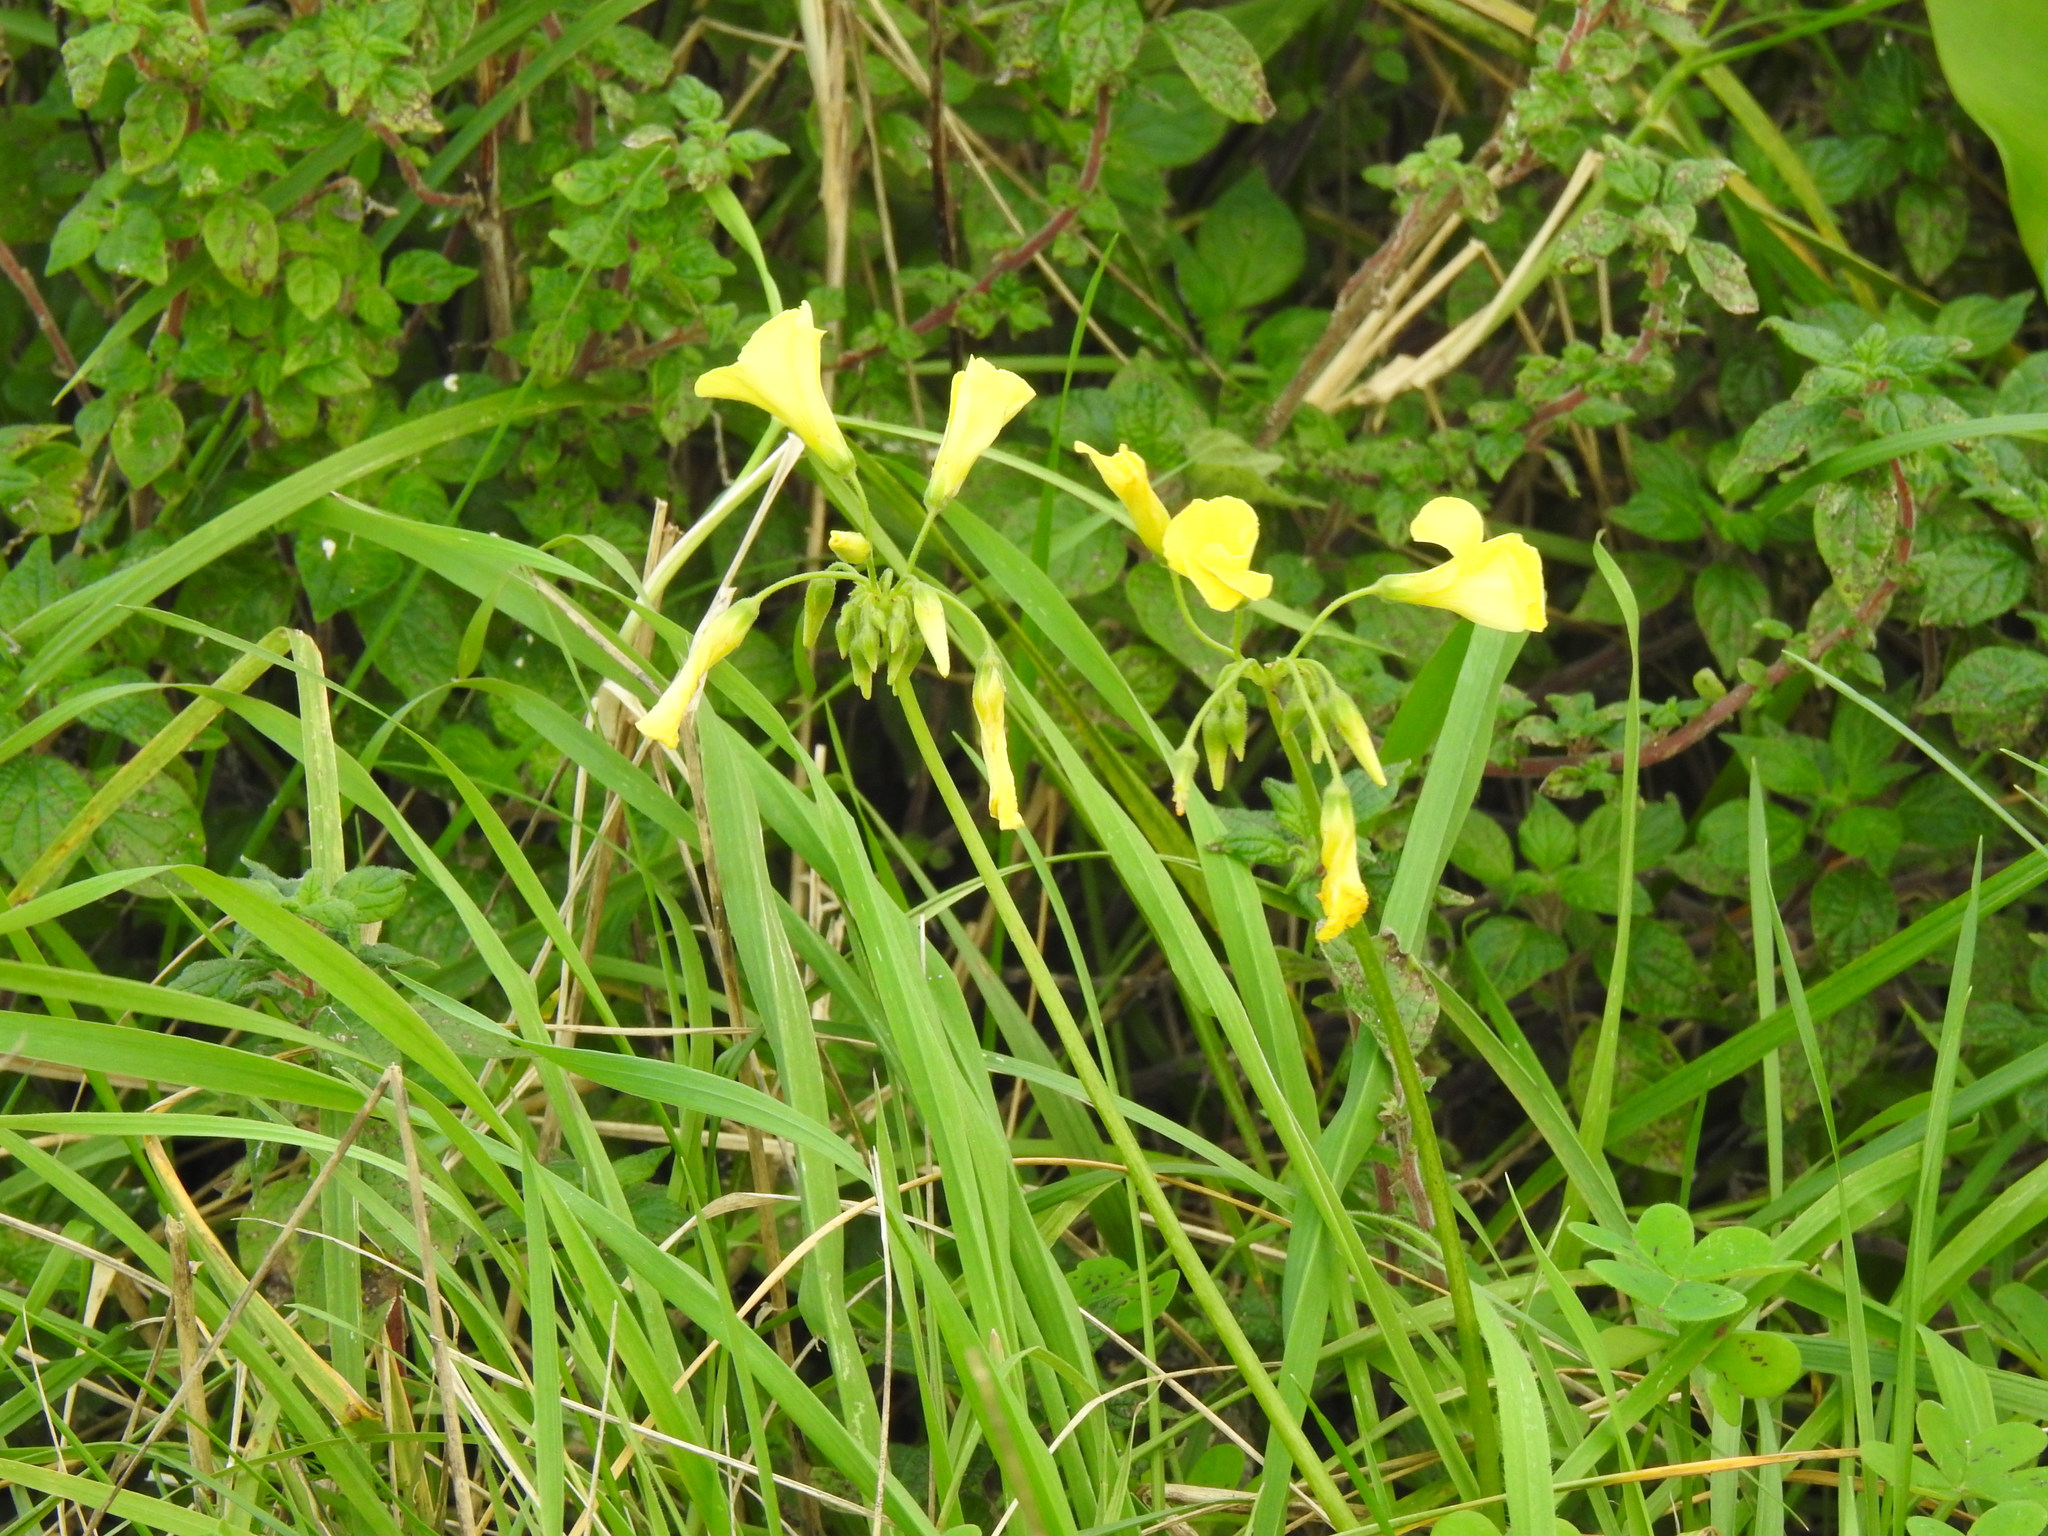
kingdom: Plantae
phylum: Tracheophyta
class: Magnoliopsida
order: Oxalidales
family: Oxalidaceae
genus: Oxalis
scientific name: Oxalis pes-caprae
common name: Bermuda-buttercup
